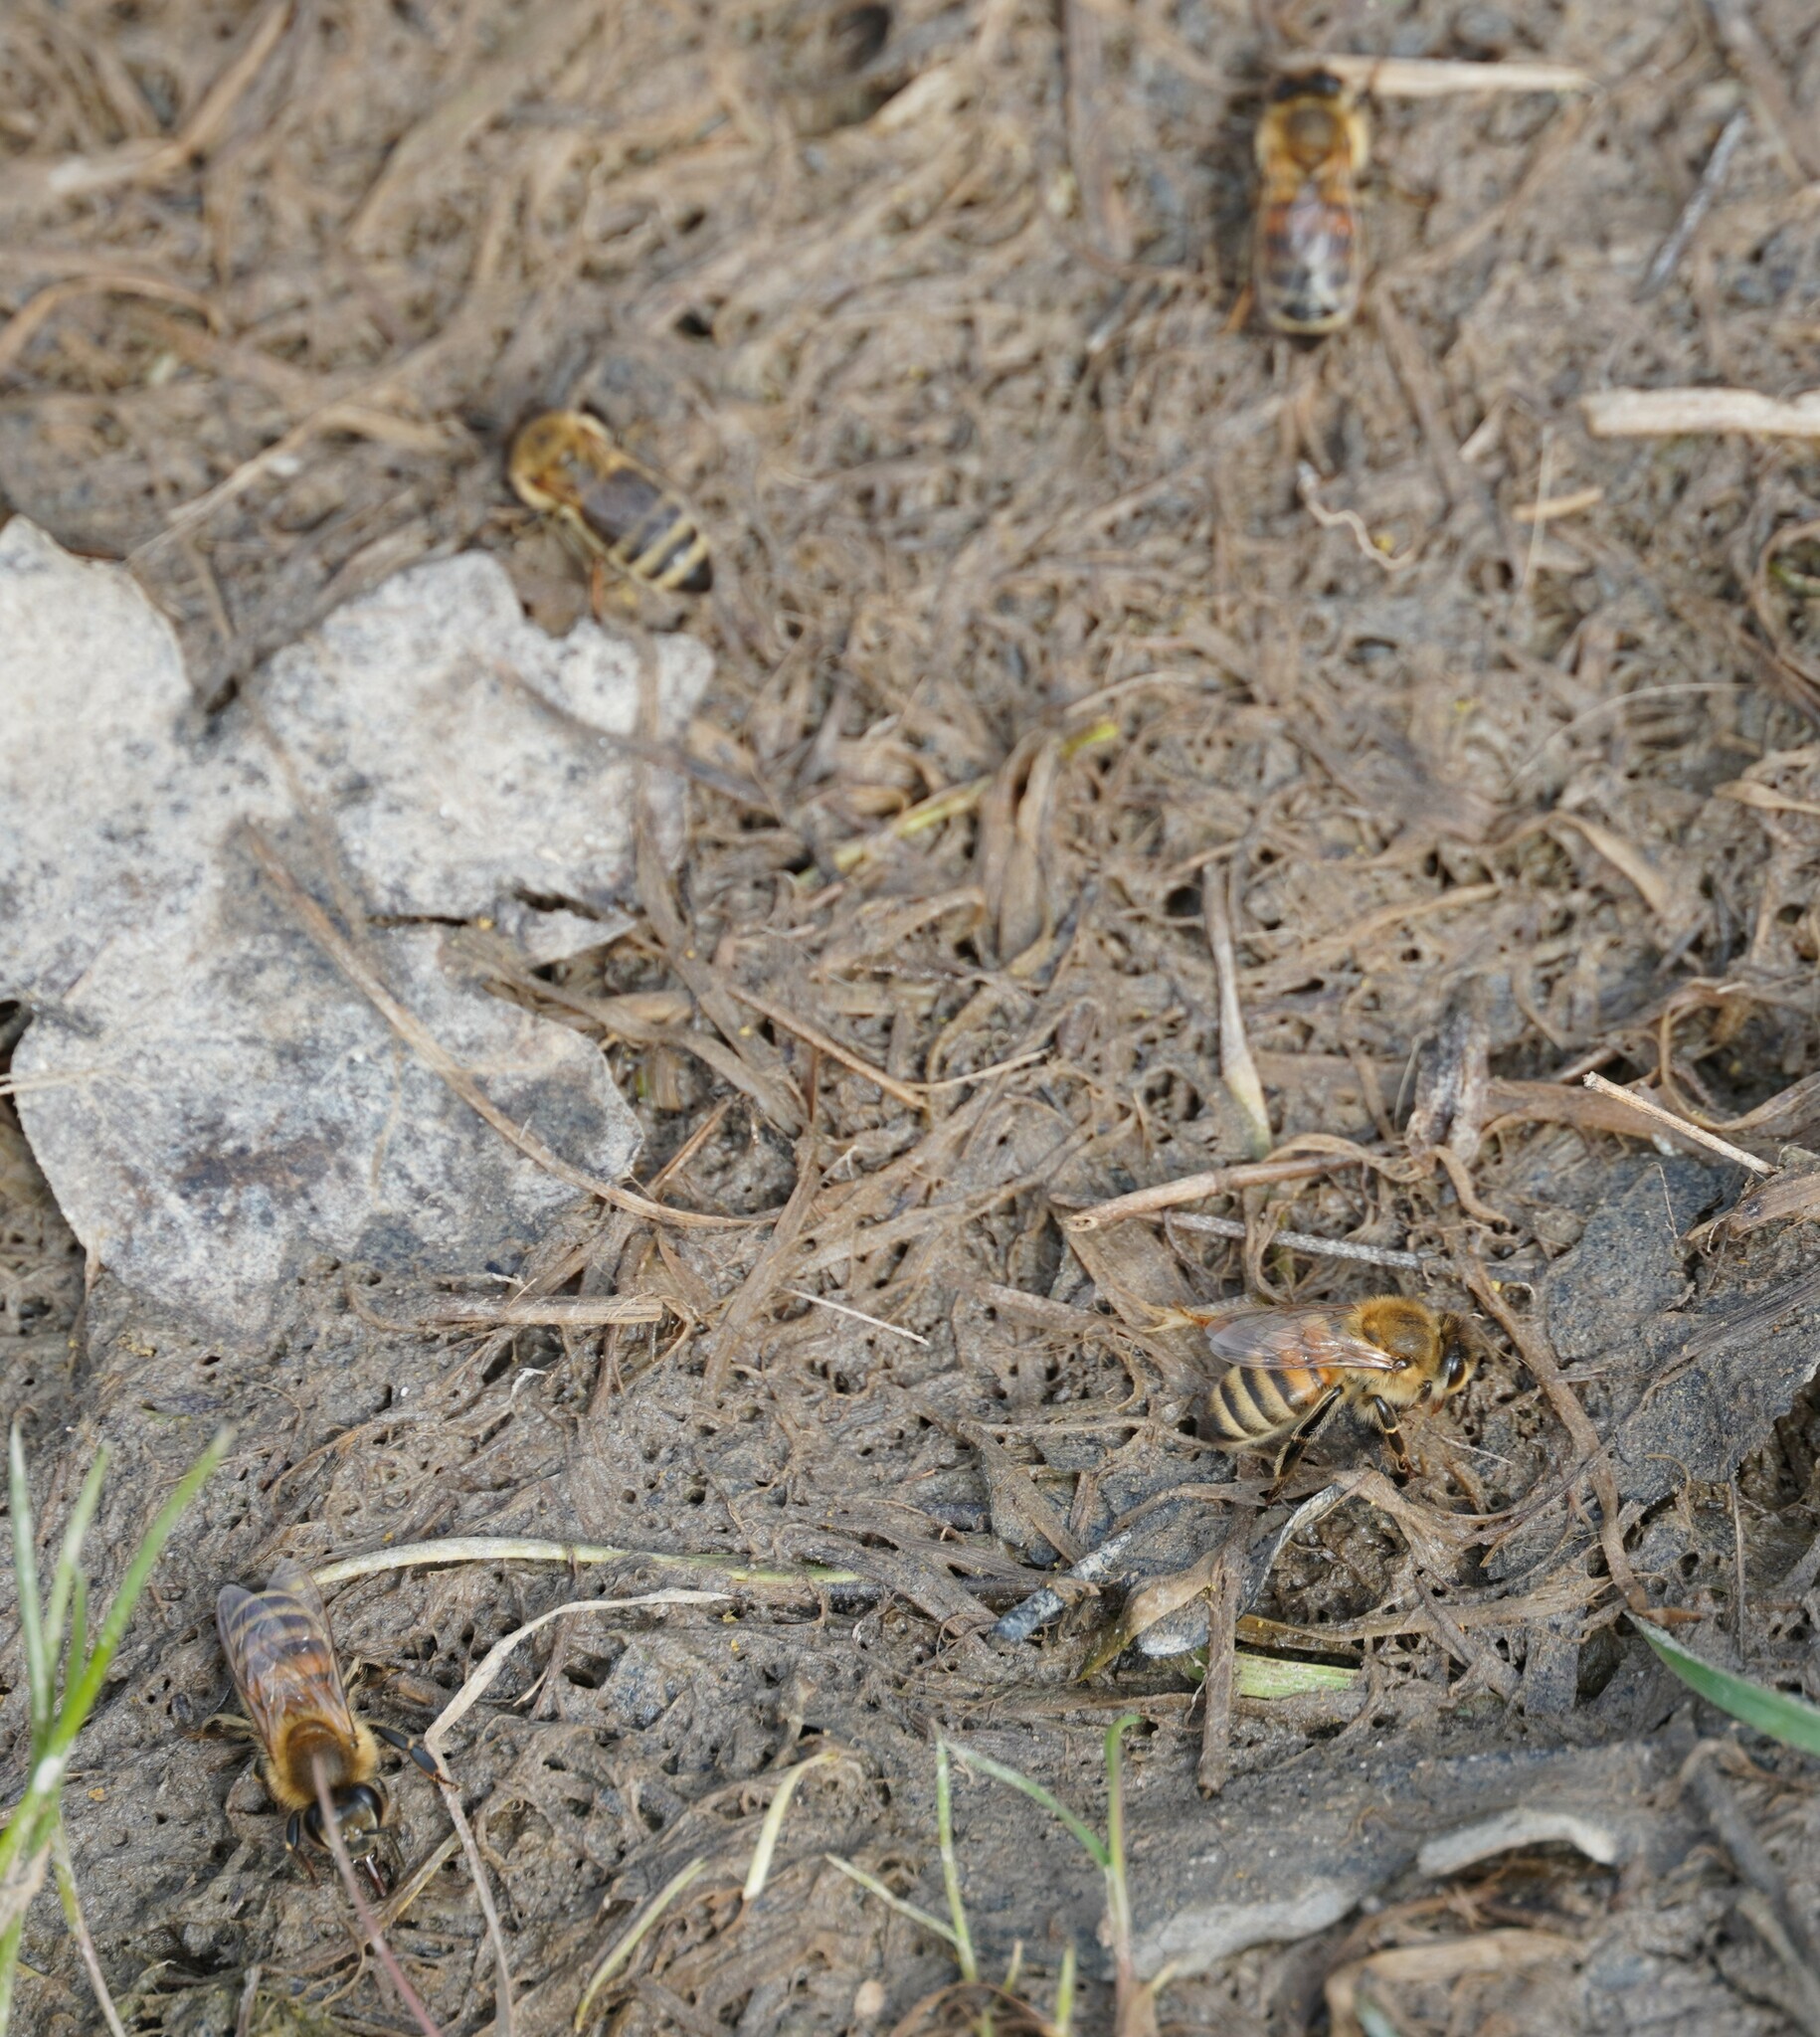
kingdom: Animalia
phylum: Arthropoda
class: Insecta
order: Hymenoptera
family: Apidae
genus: Apis
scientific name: Apis mellifera
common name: Honey bee
